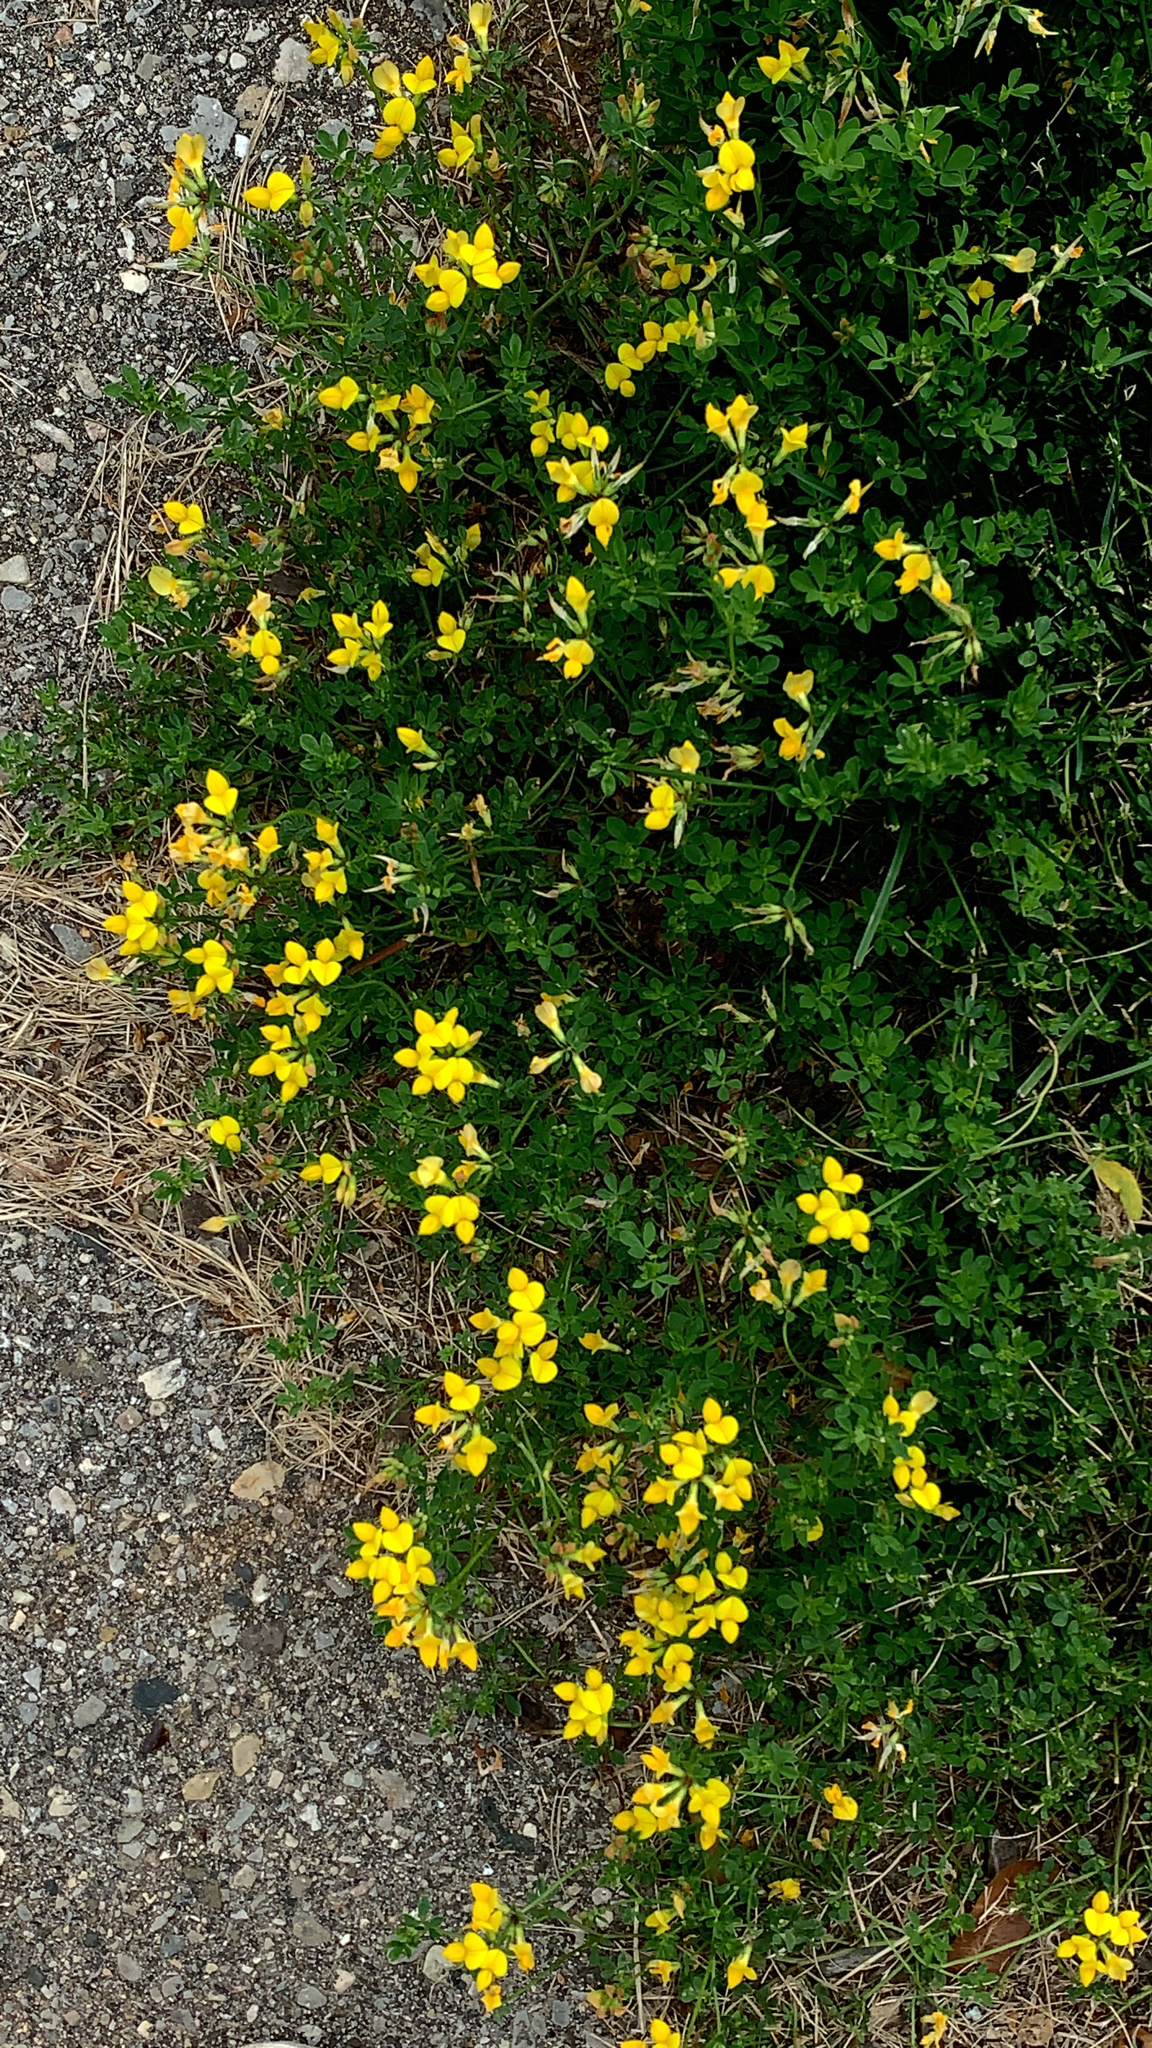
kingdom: Plantae
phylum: Tracheophyta
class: Magnoliopsida
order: Fabales
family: Fabaceae
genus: Lotus
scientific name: Lotus corniculatus
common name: Common bird's-foot-trefoil
